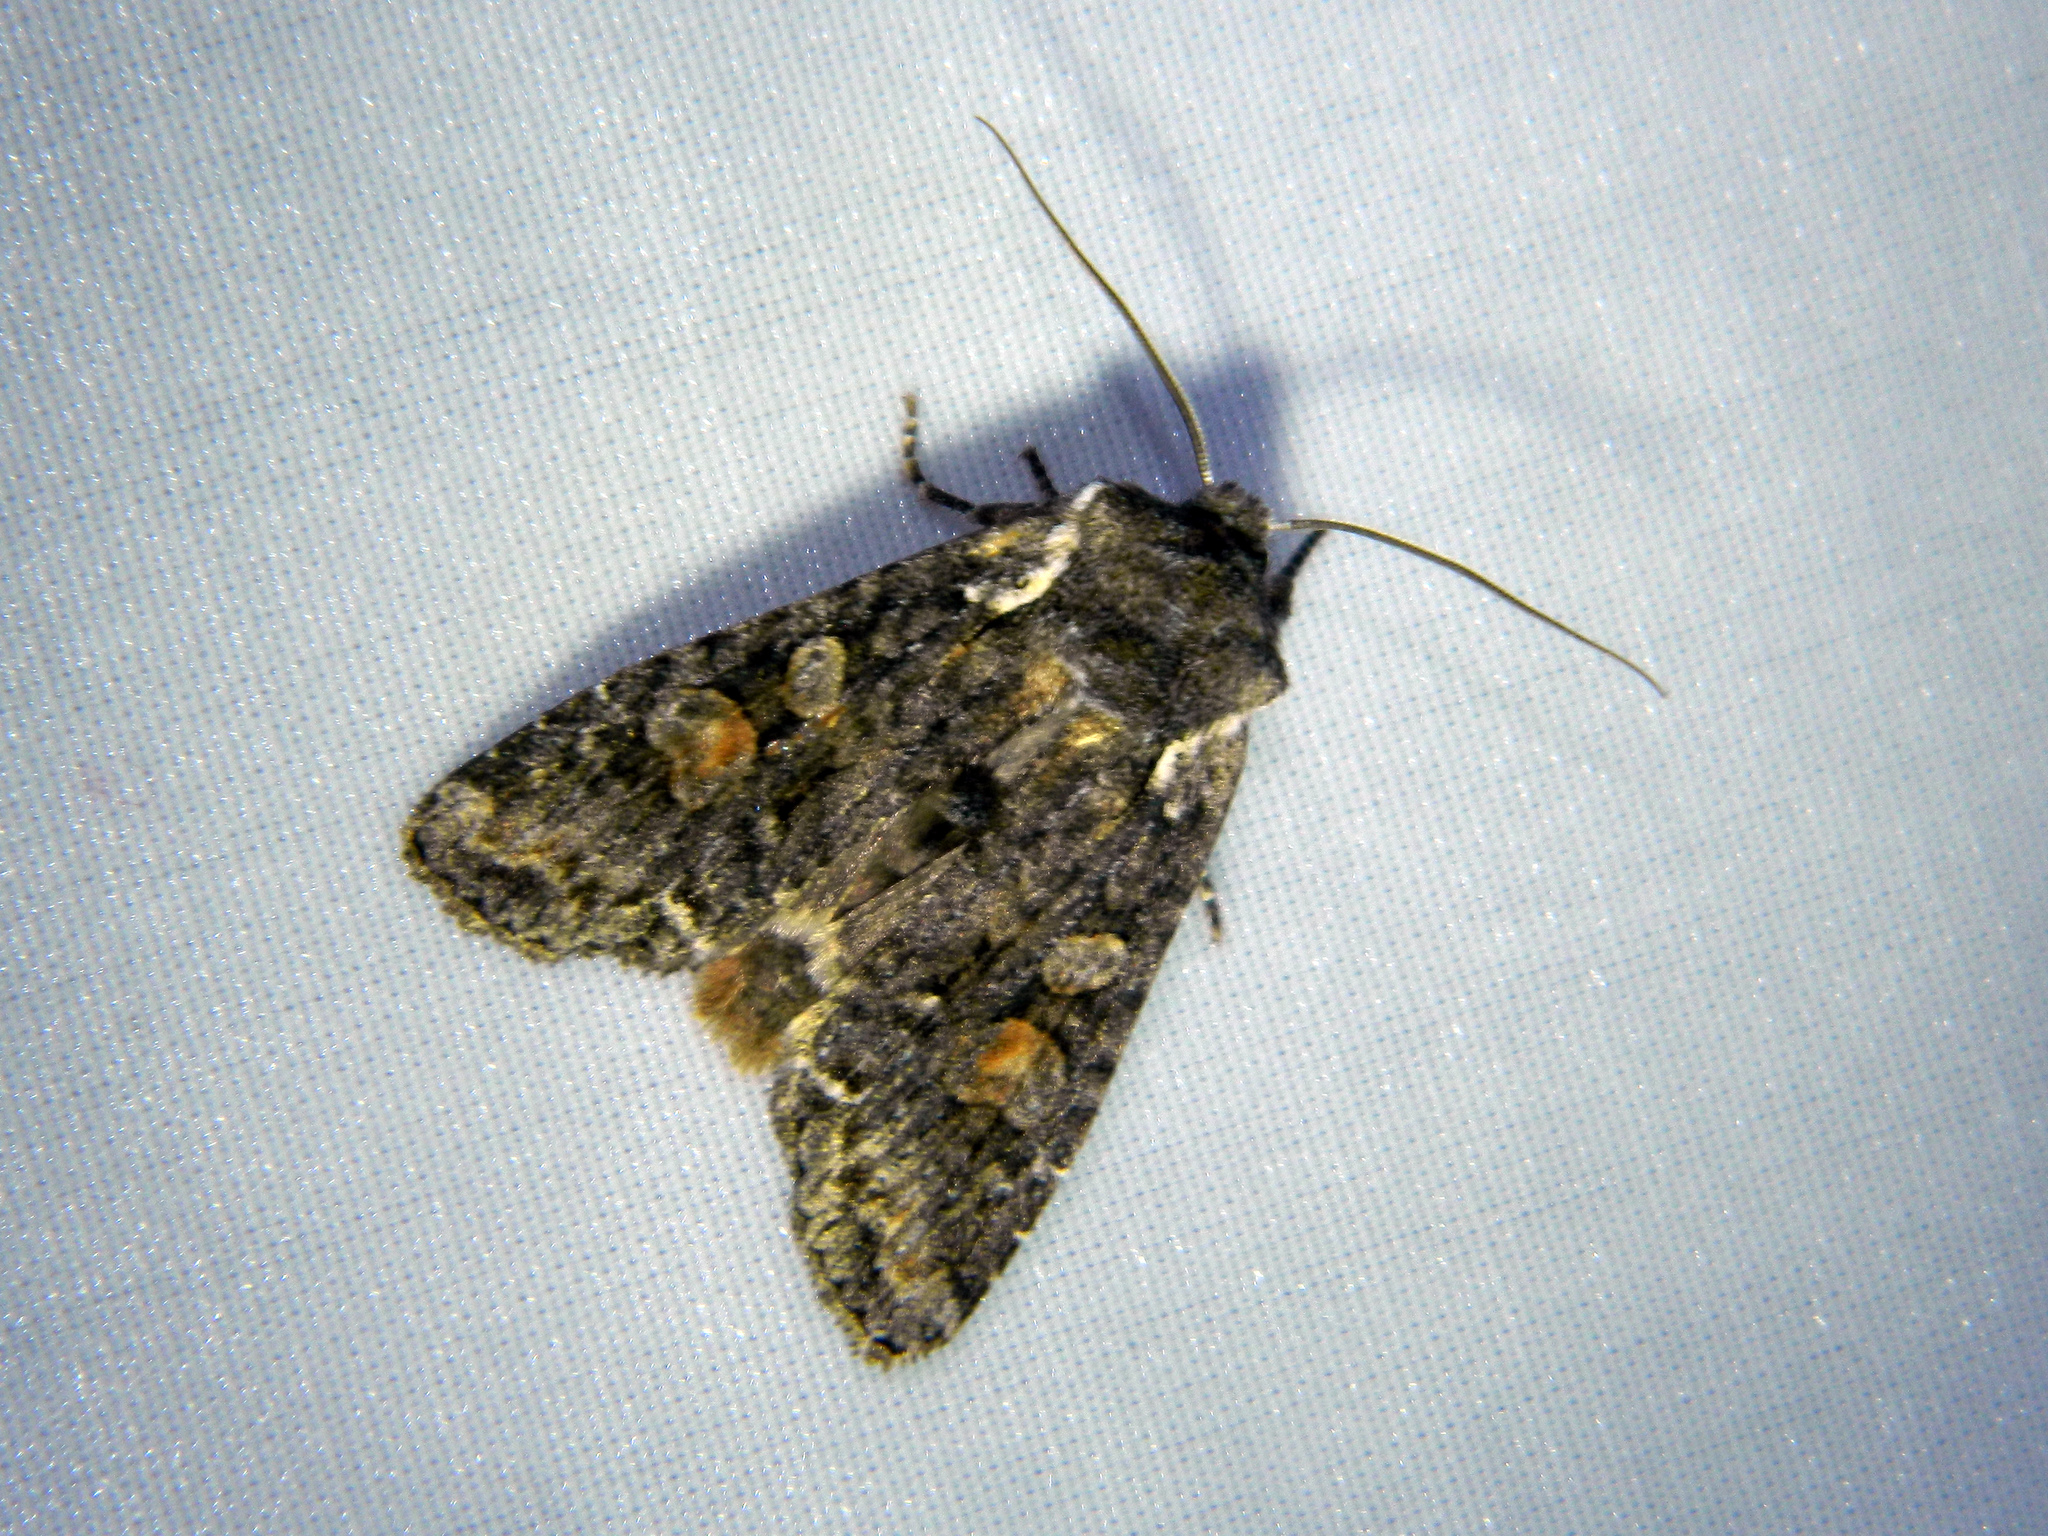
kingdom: Animalia
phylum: Arthropoda
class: Insecta
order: Lepidoptera
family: Noctuidae
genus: Lithophane
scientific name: Lithophane pexata
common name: Plush-naped pinion moth
